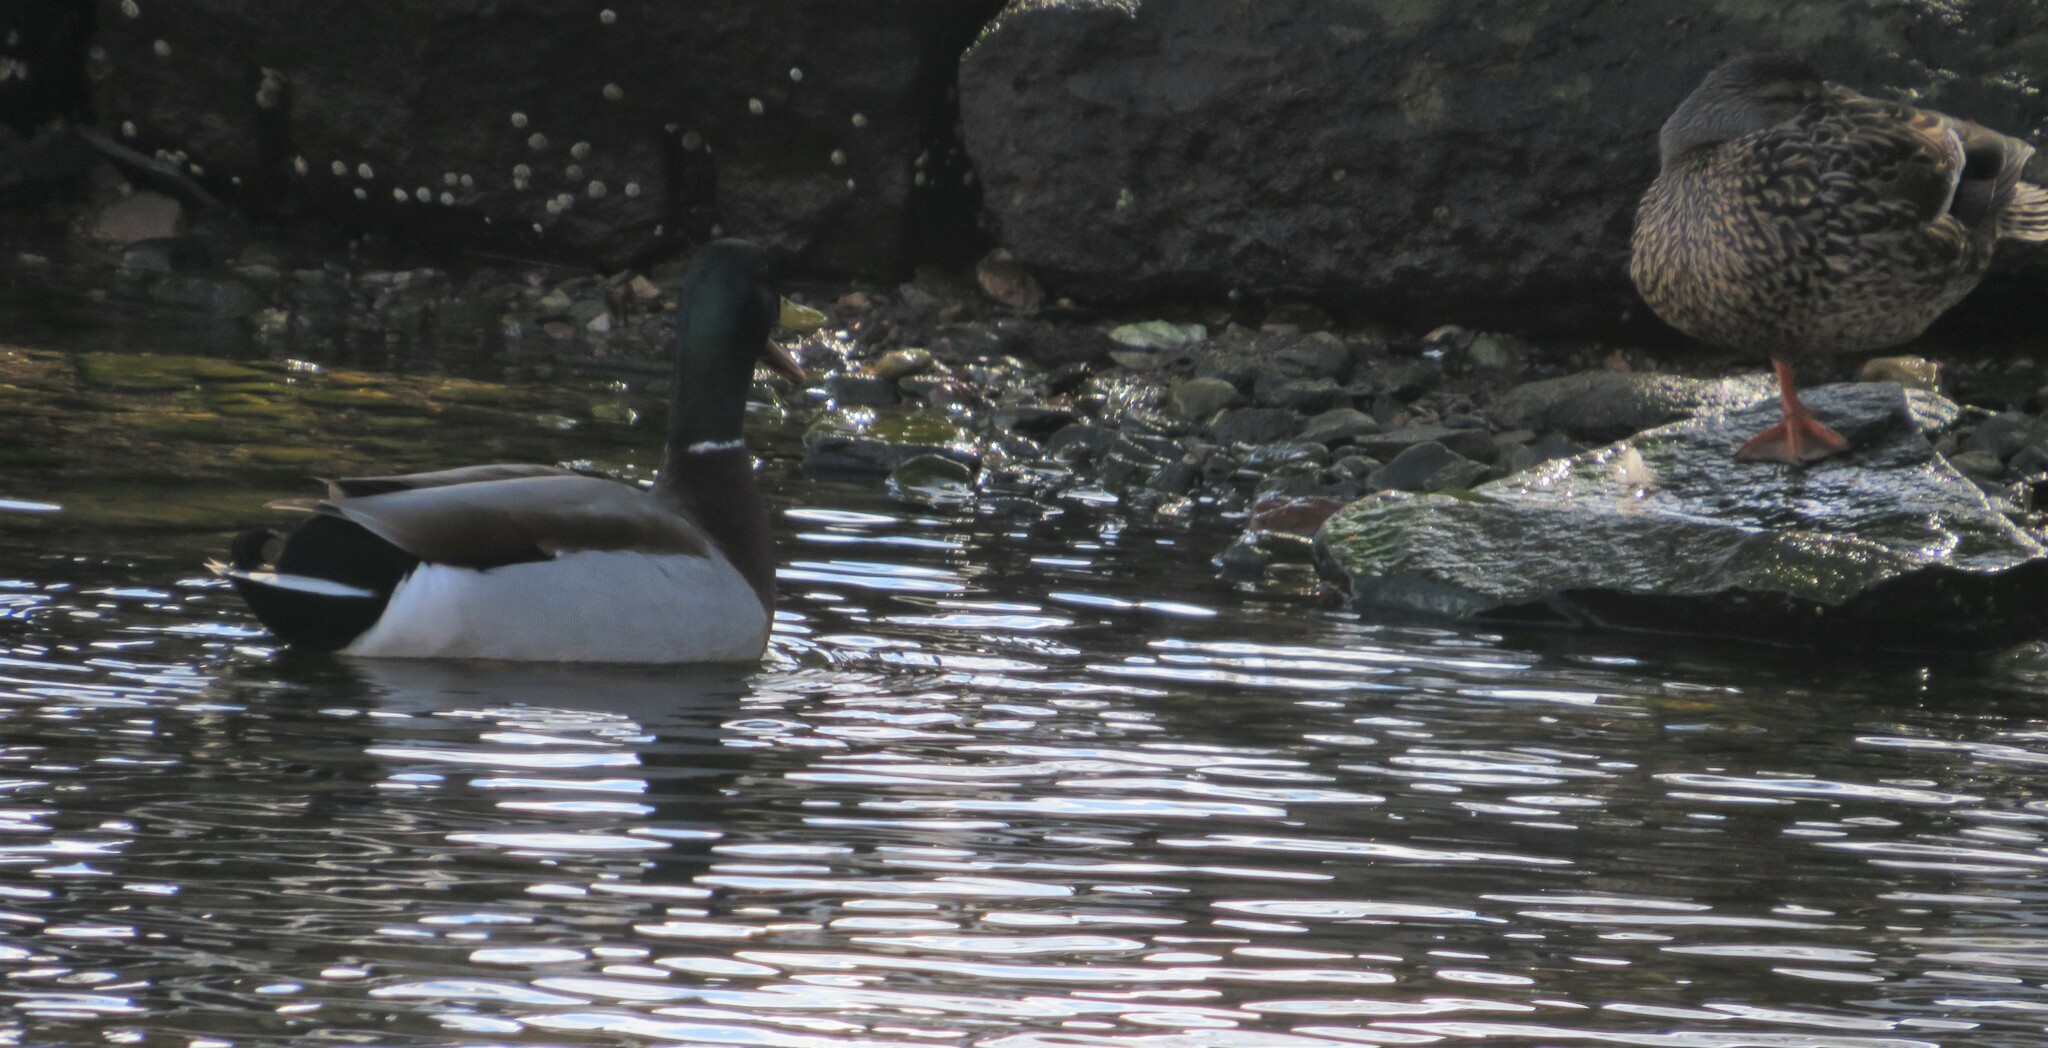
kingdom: Animalia
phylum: Chordata
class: Aves
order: Anseriformes
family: Anatidae
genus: Anas
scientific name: Anas platyrhynchos
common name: Mallard
